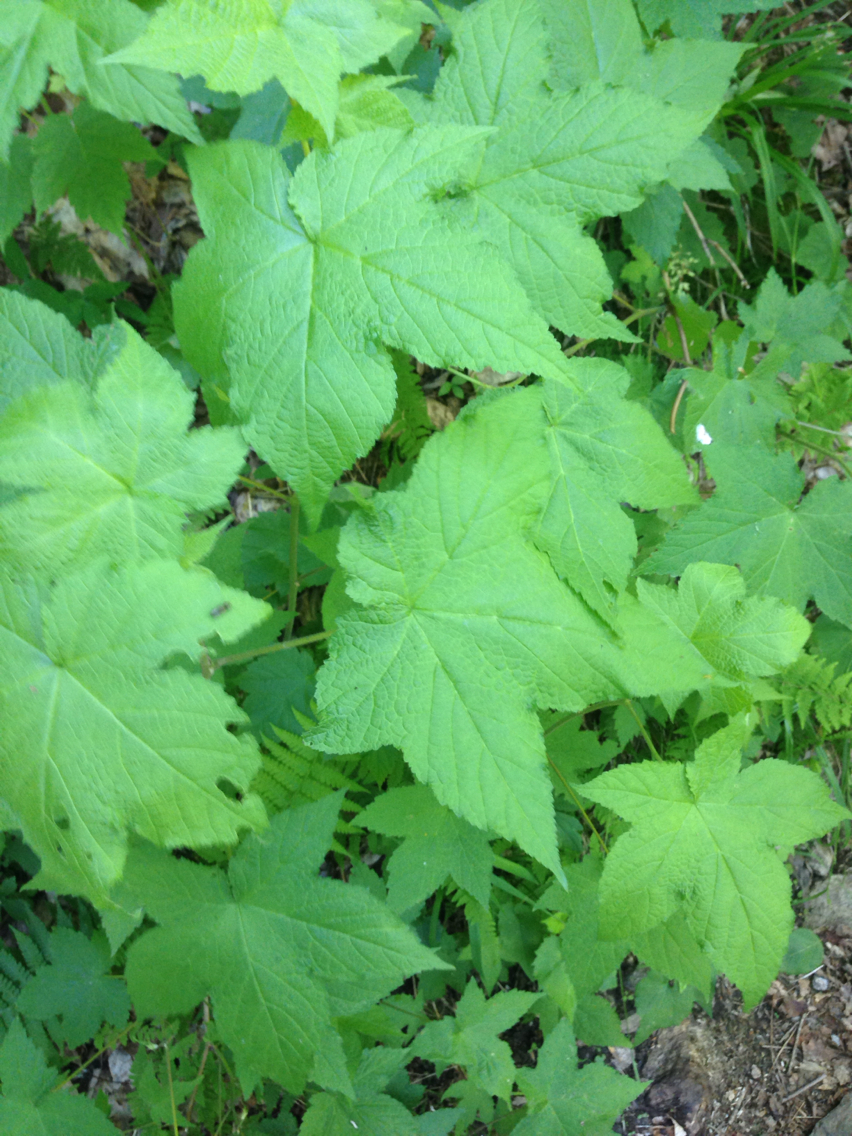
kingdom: Plantae
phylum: Tracheophyta
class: Magnoliopsida
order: Rosales
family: Rosaceae
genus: Rubus
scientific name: Rubus odoratus
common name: Purple-flowered raspberry
